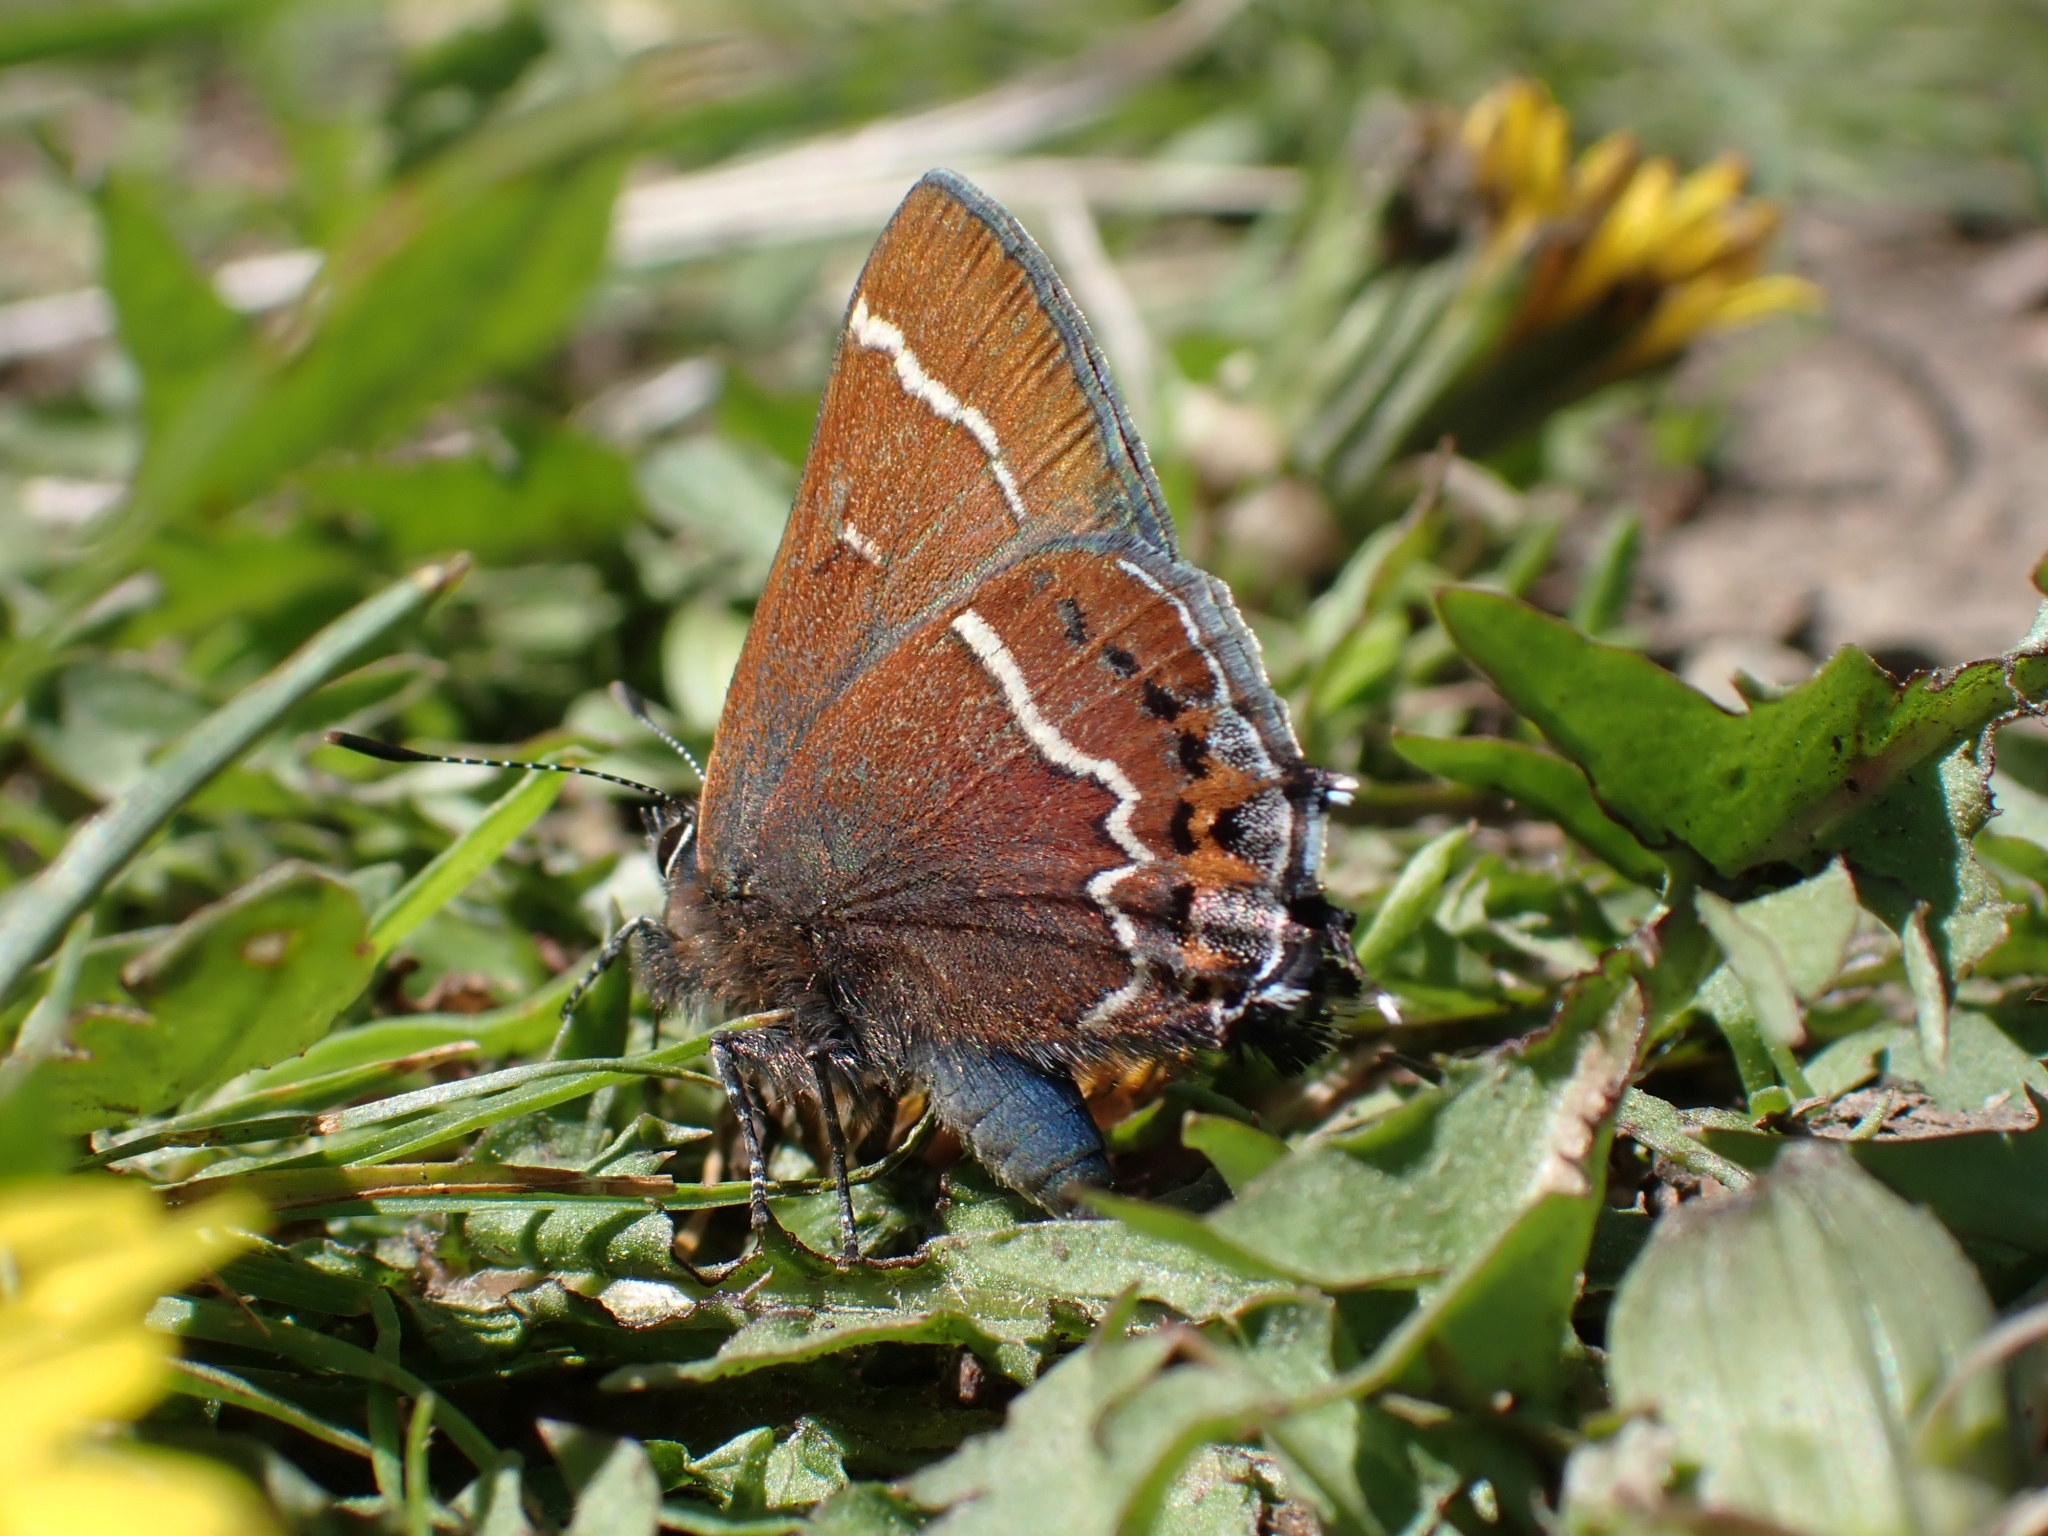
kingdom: Animalia
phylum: Arthropoda
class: Insecta
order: Lepidoptera
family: Lycaenidae
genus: Mitoura
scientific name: Mitoura spinetorum
